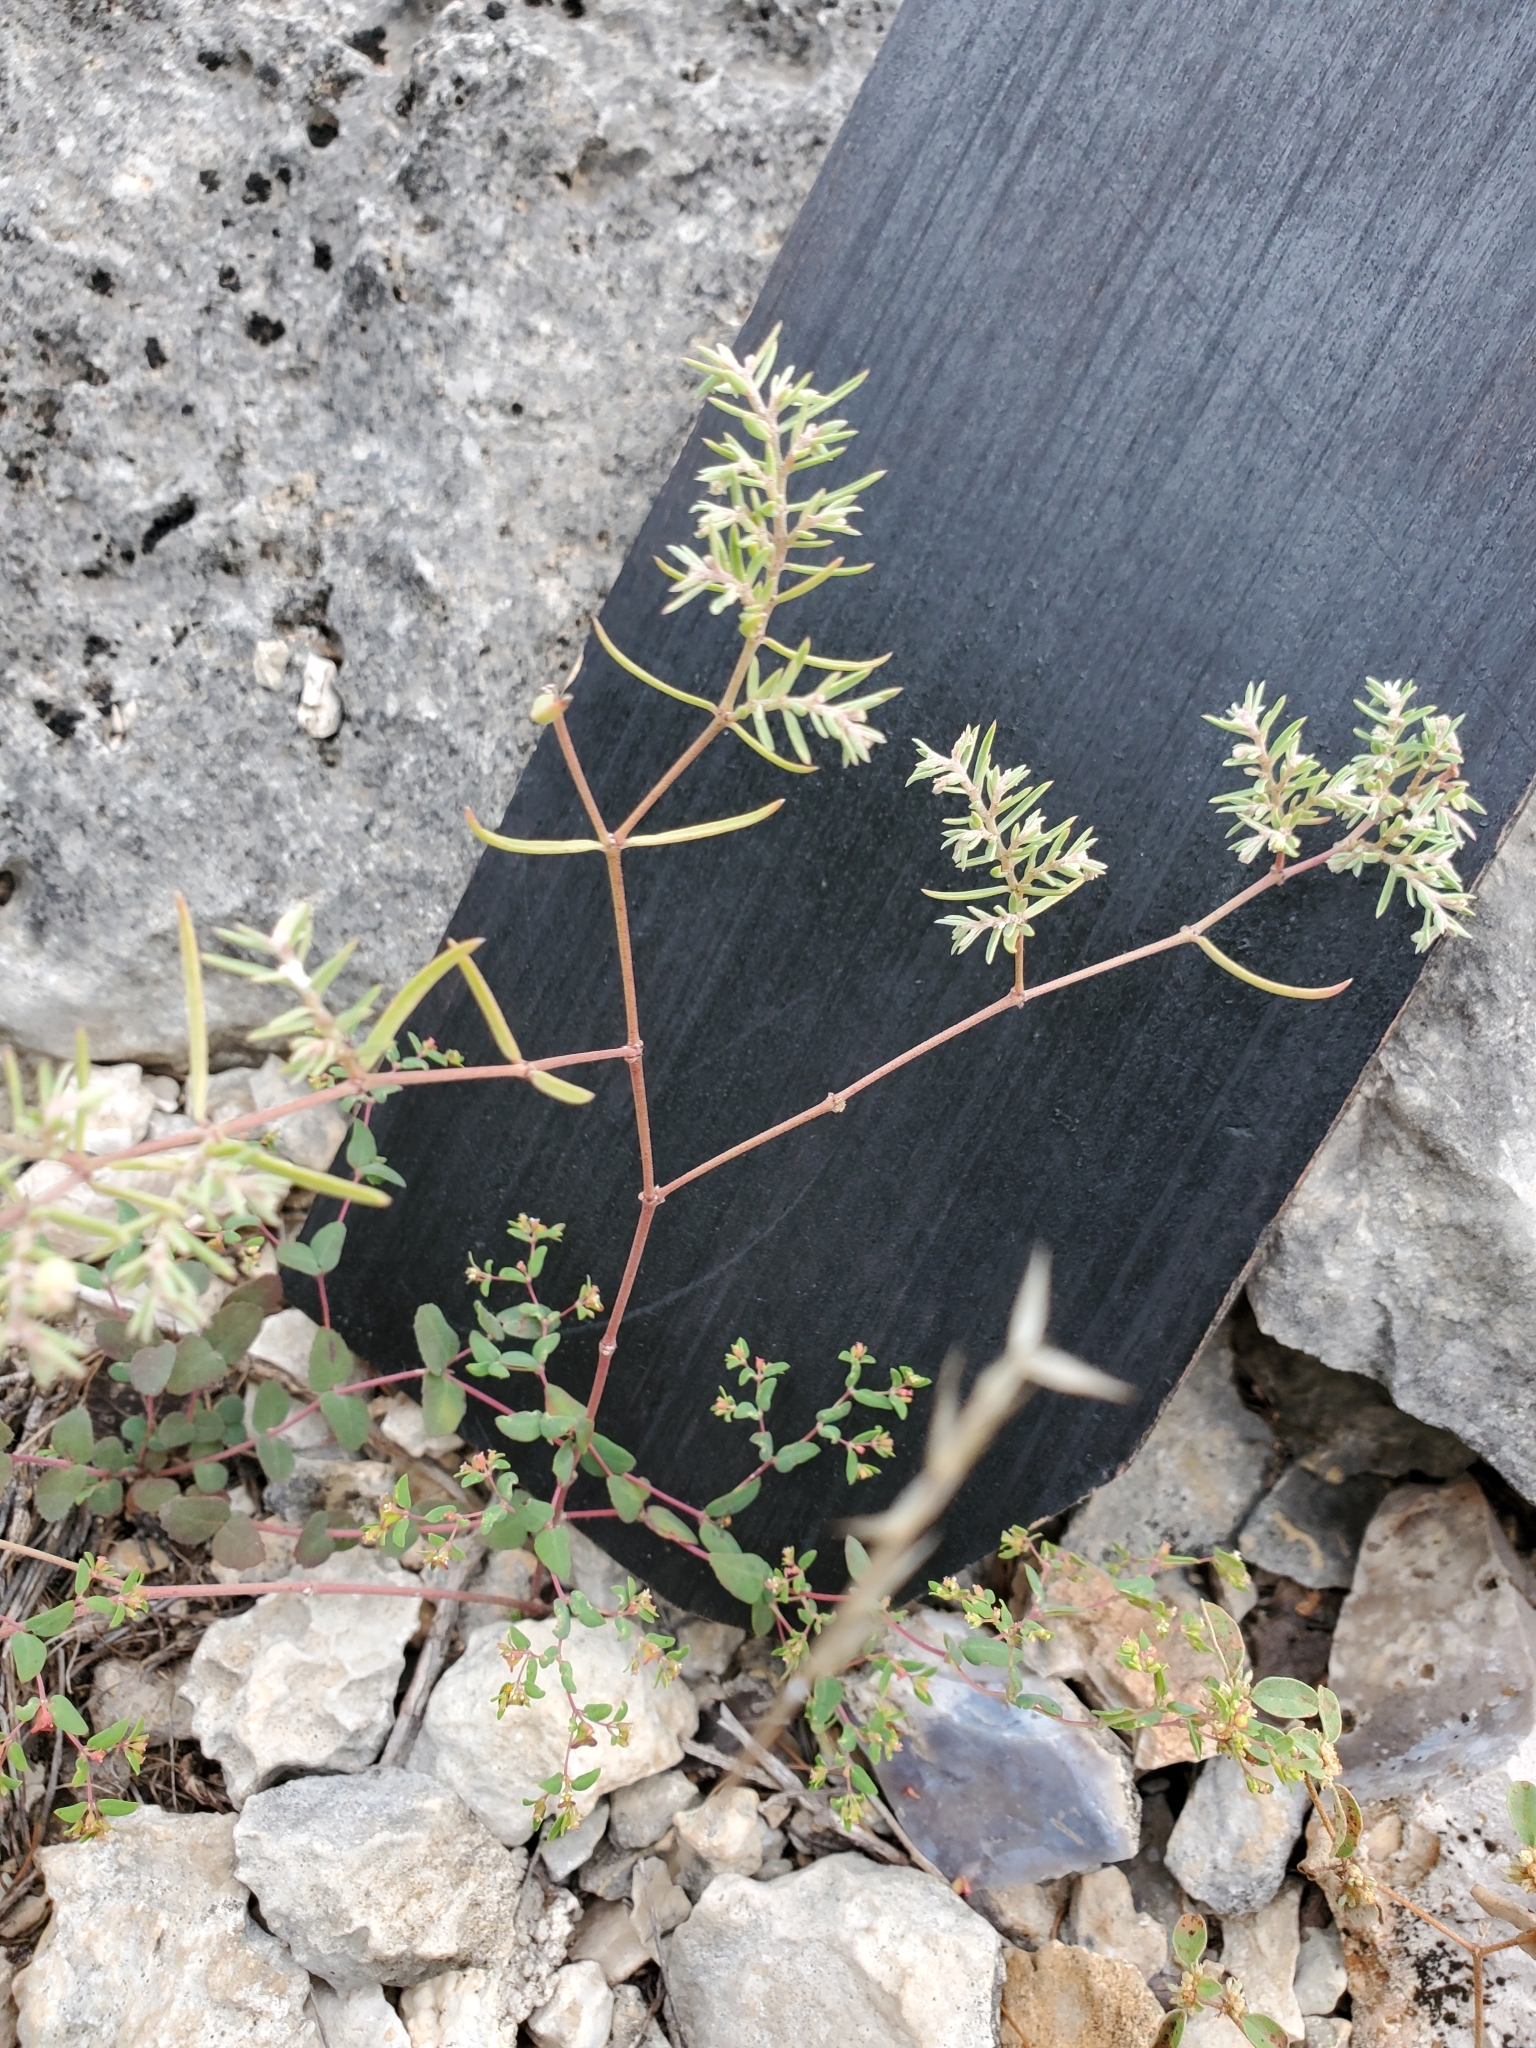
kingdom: Plantae
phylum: Tracheophyta
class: Magnoliopsida
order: Malpighiales
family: Euphorbiaceae
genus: Euphorbia
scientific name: Euphorbia angusta
